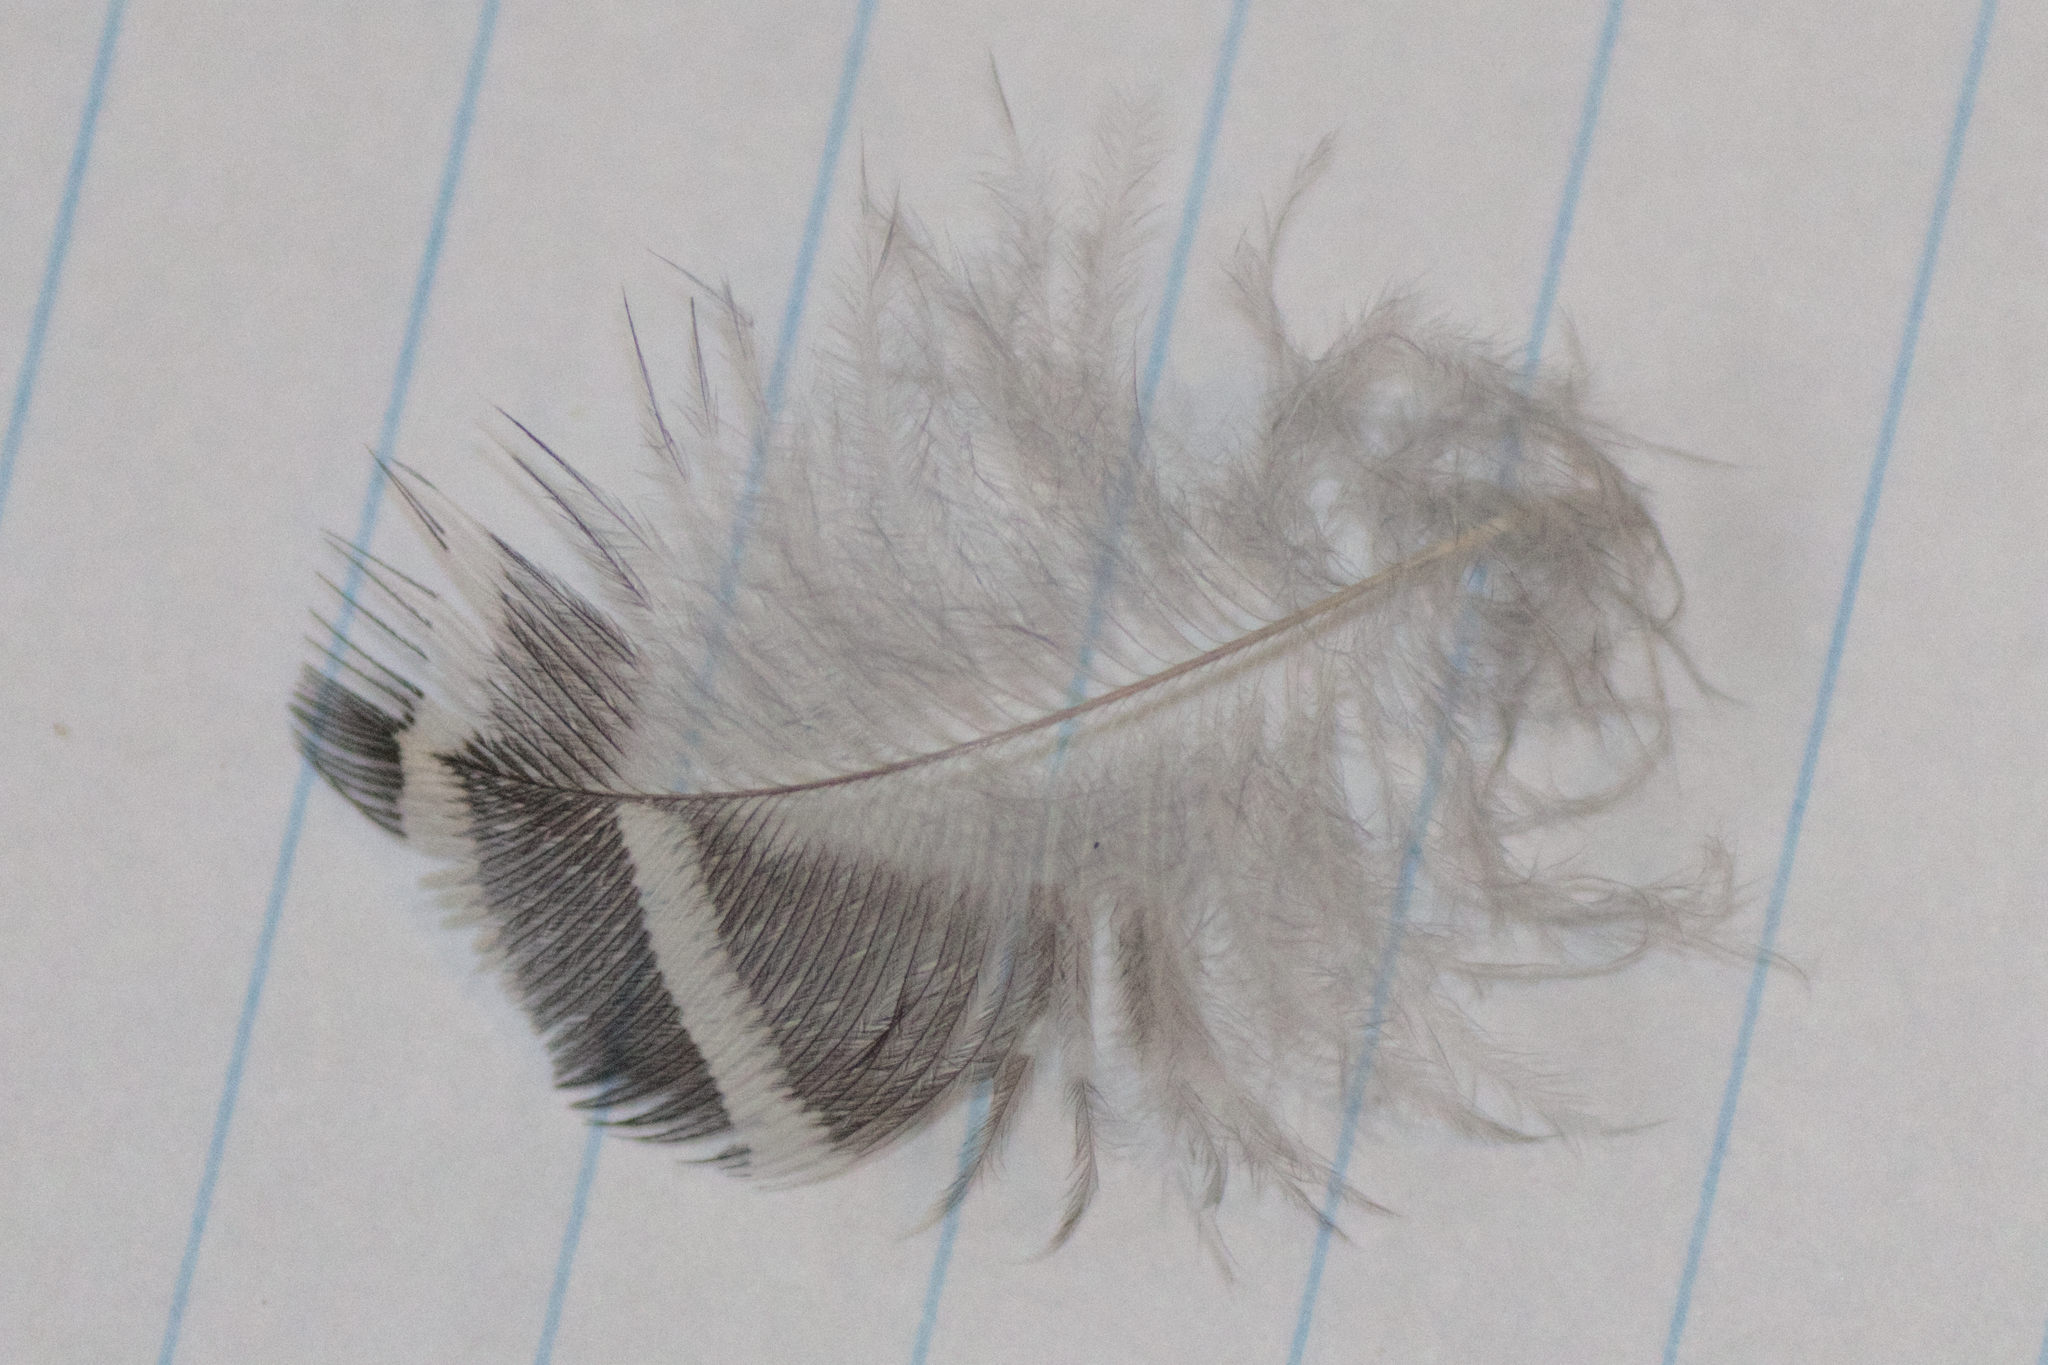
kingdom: Animalia
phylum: Chordata
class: Aves
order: Piciformes
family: Picidae
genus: Melanerpes
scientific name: Melanerpes carolinus
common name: Red-bellied woodpecker
